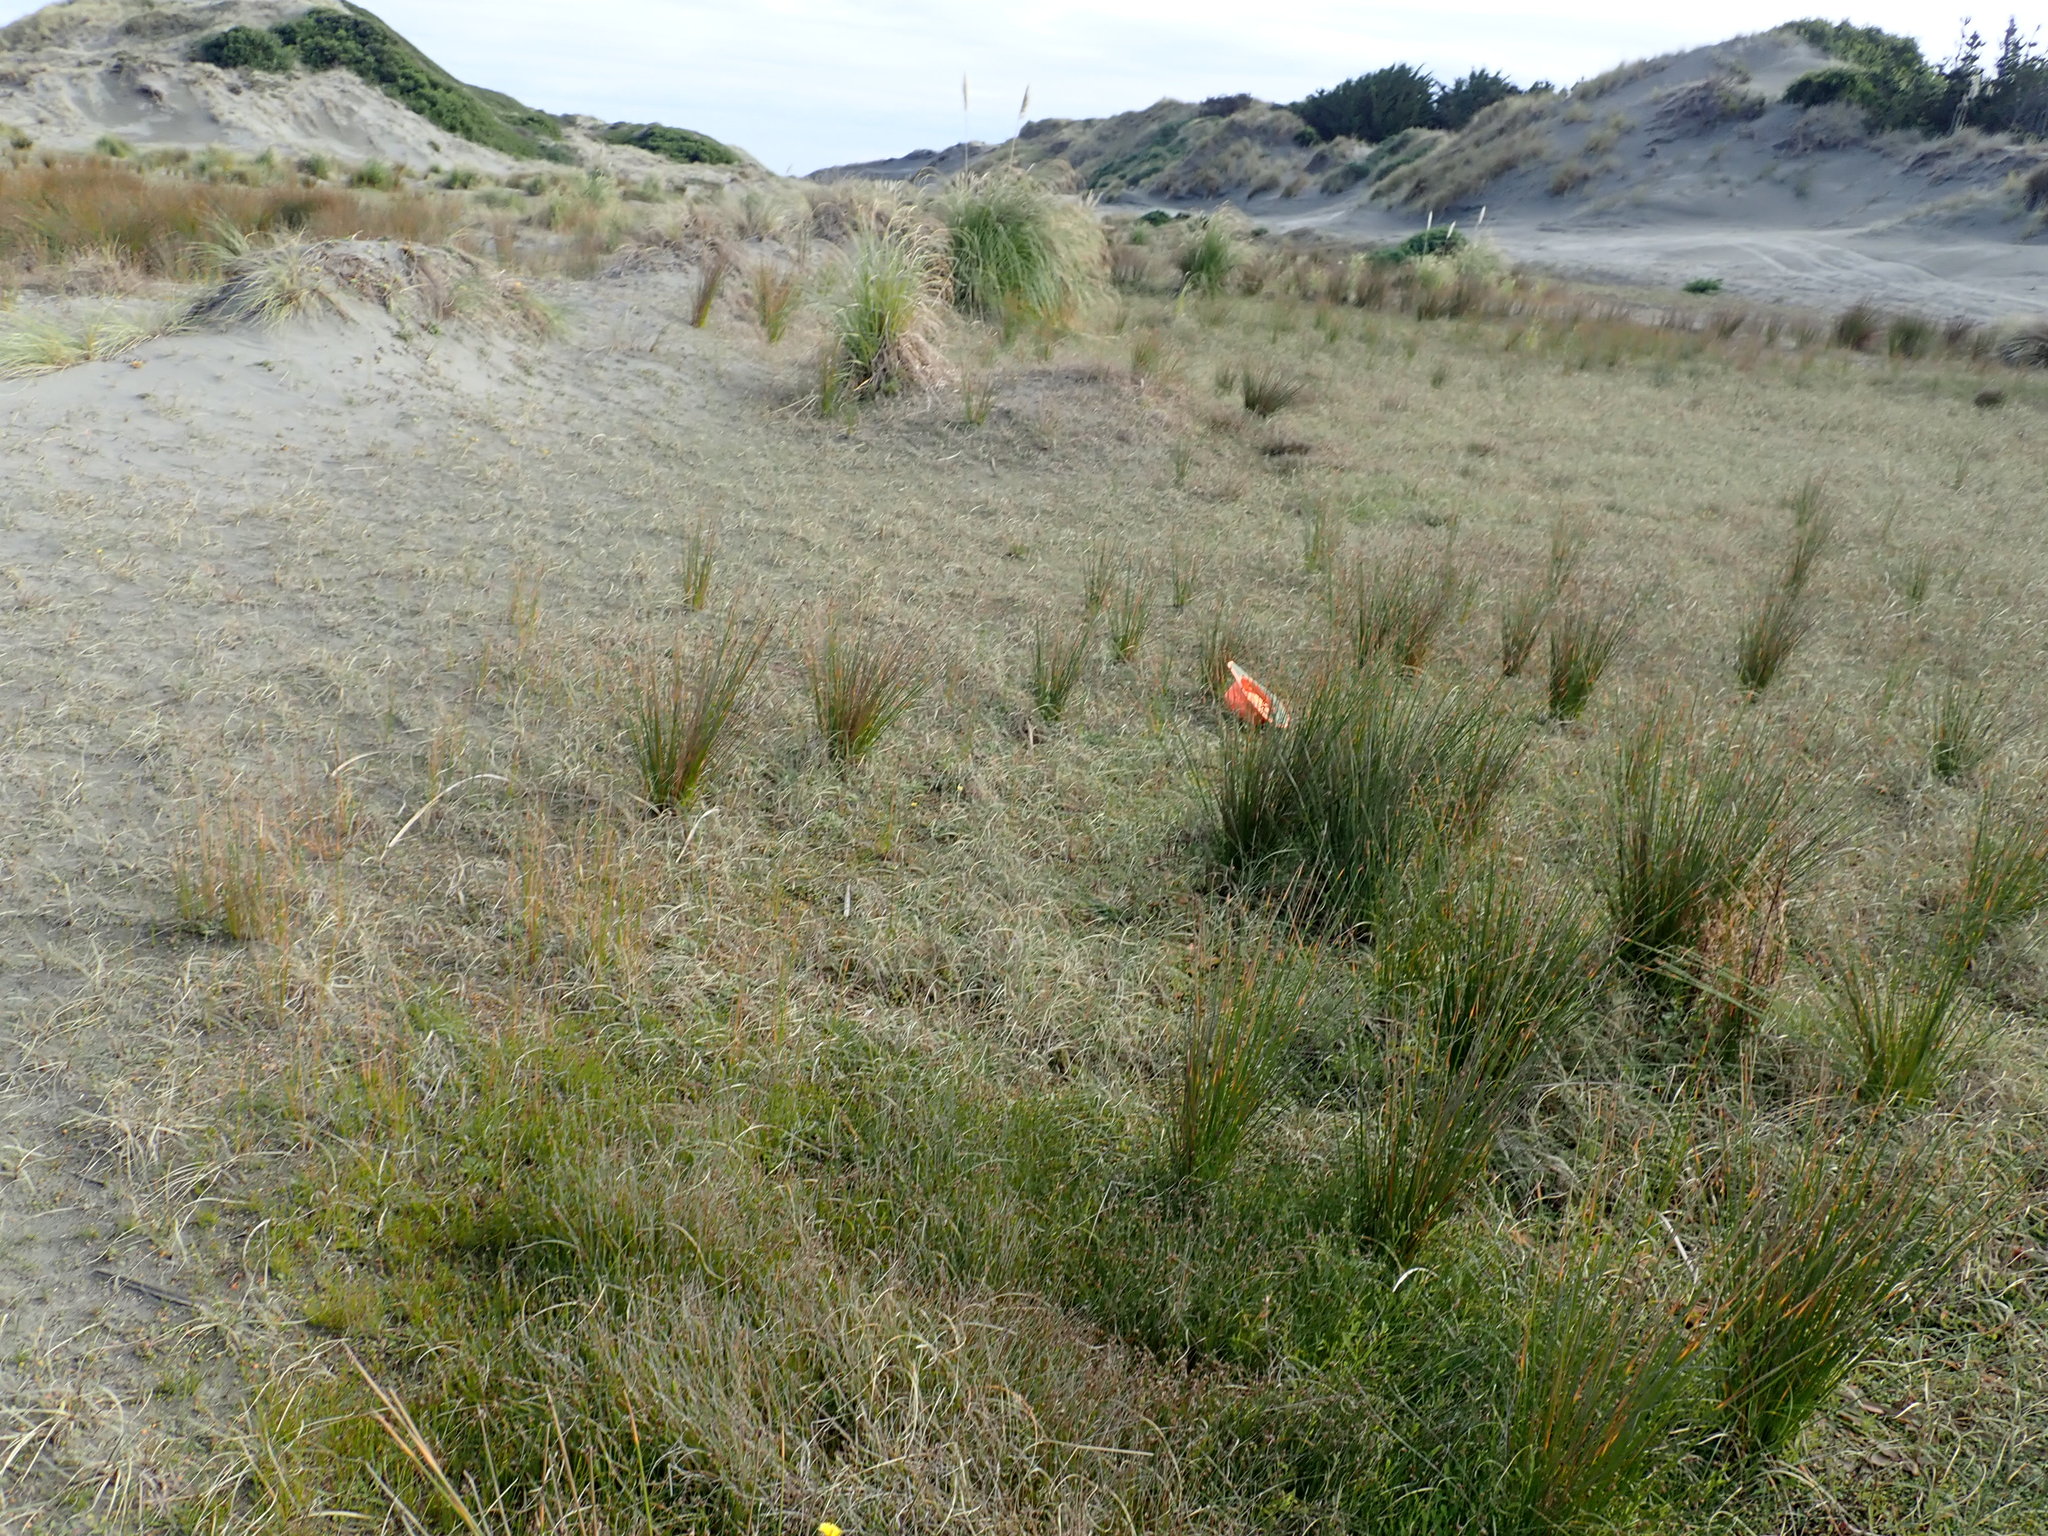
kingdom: Plantae
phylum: Tracheophyta
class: Magnoliopsida
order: Saxifragales
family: Haloragaceae
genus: Myriophyllum
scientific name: Myriophyllum votschii
